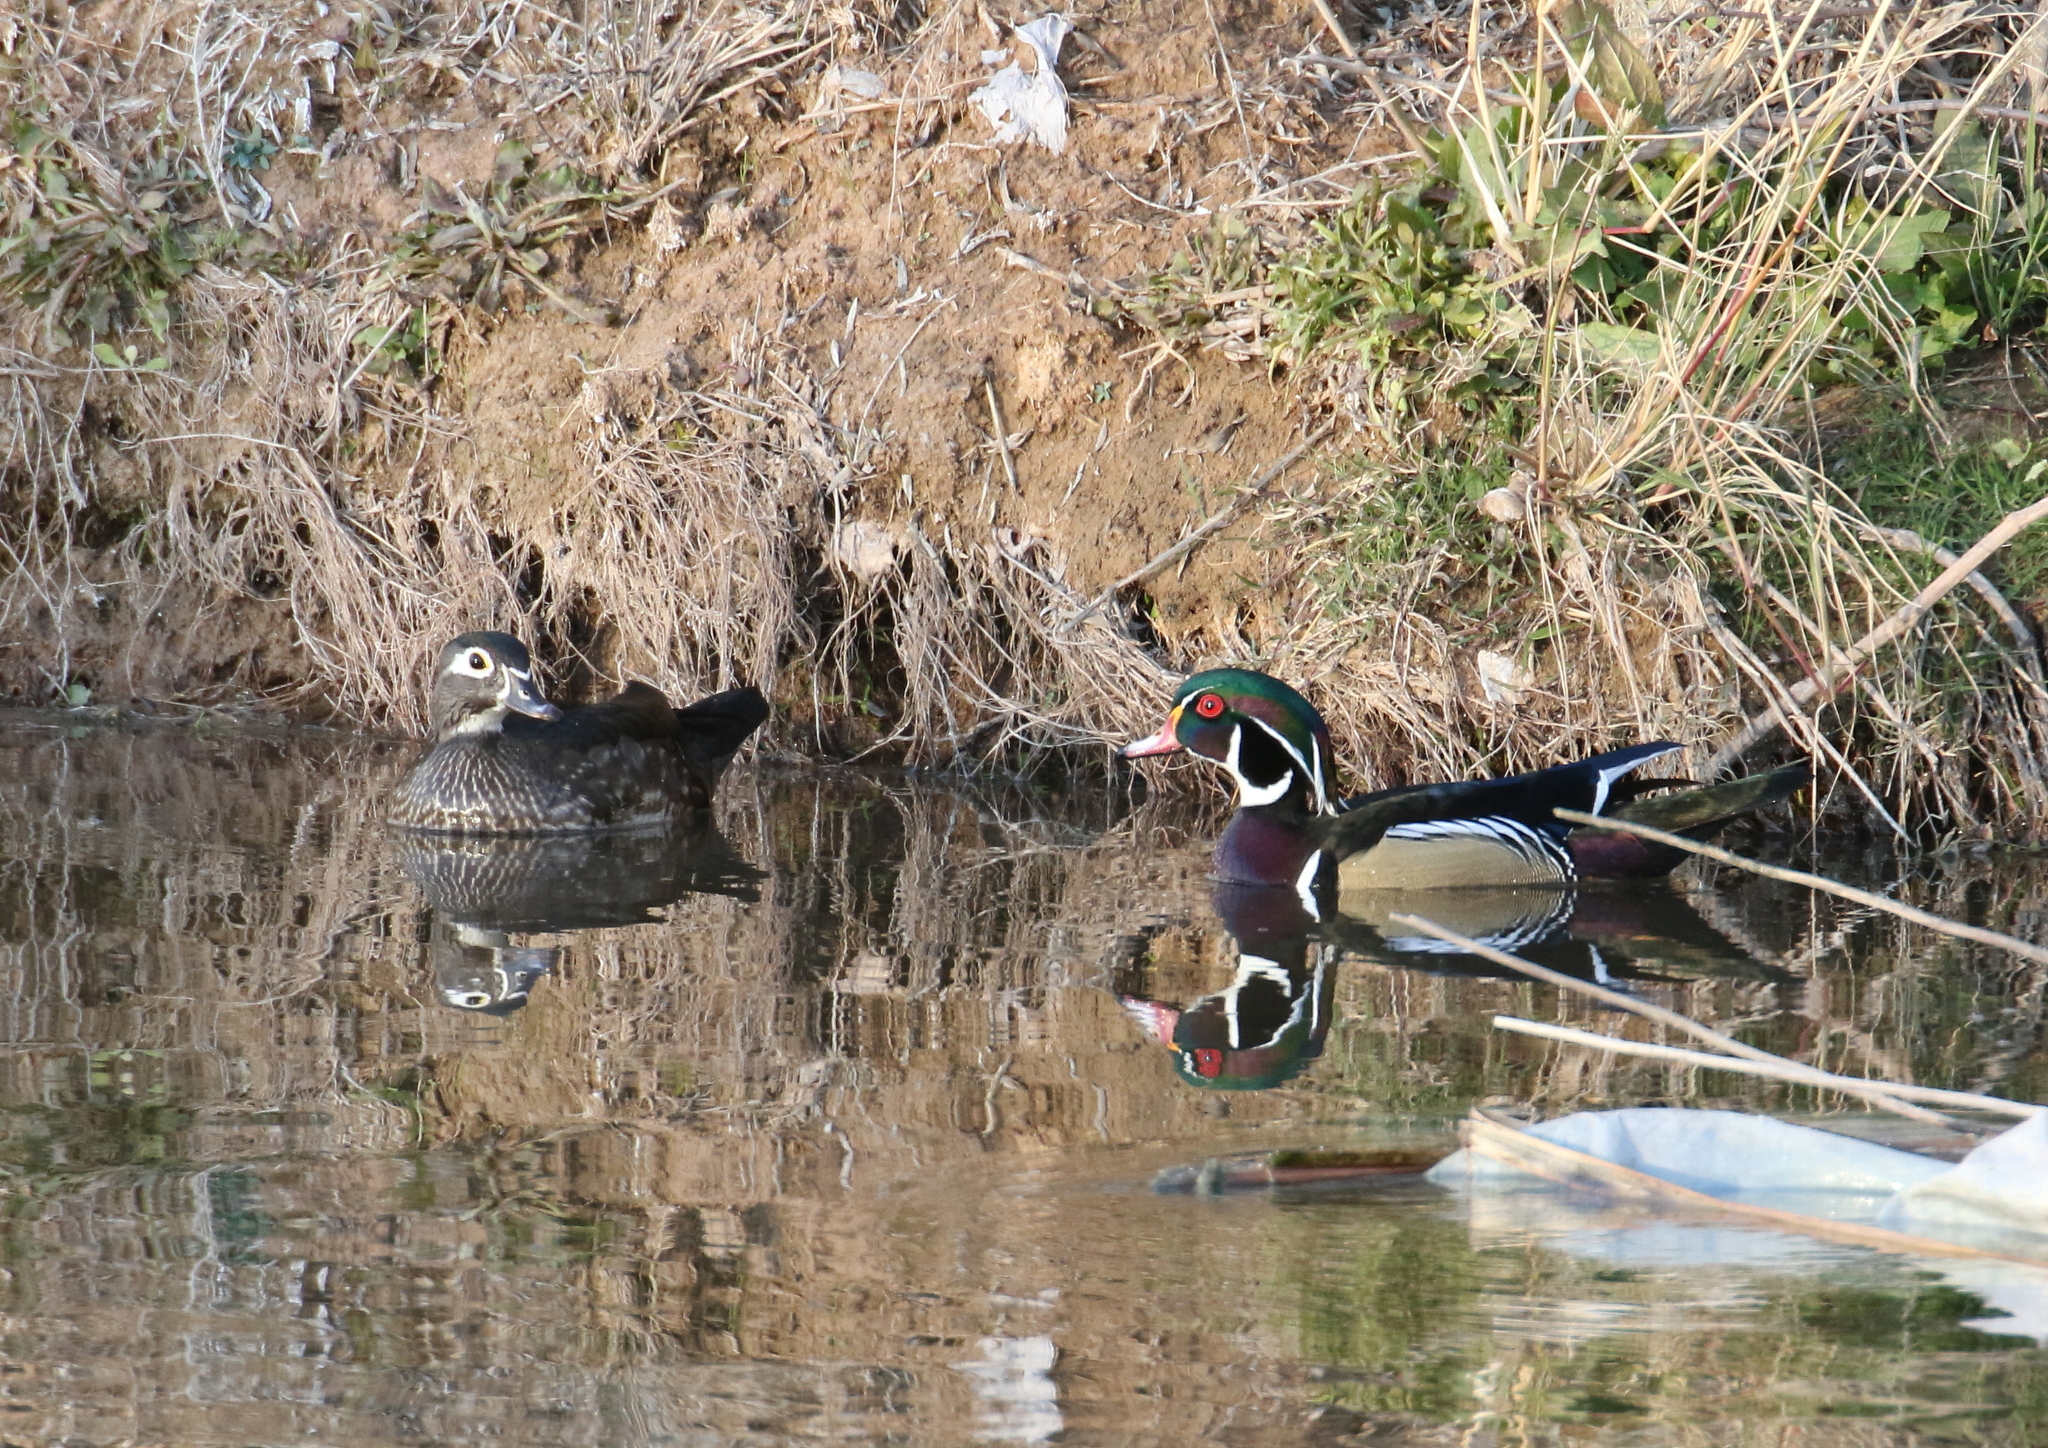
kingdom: Animalia
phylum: Chordata
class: Aves
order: Anseriformes
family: Anatidae
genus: Aix
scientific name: Aix sponsa
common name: Wood duck
